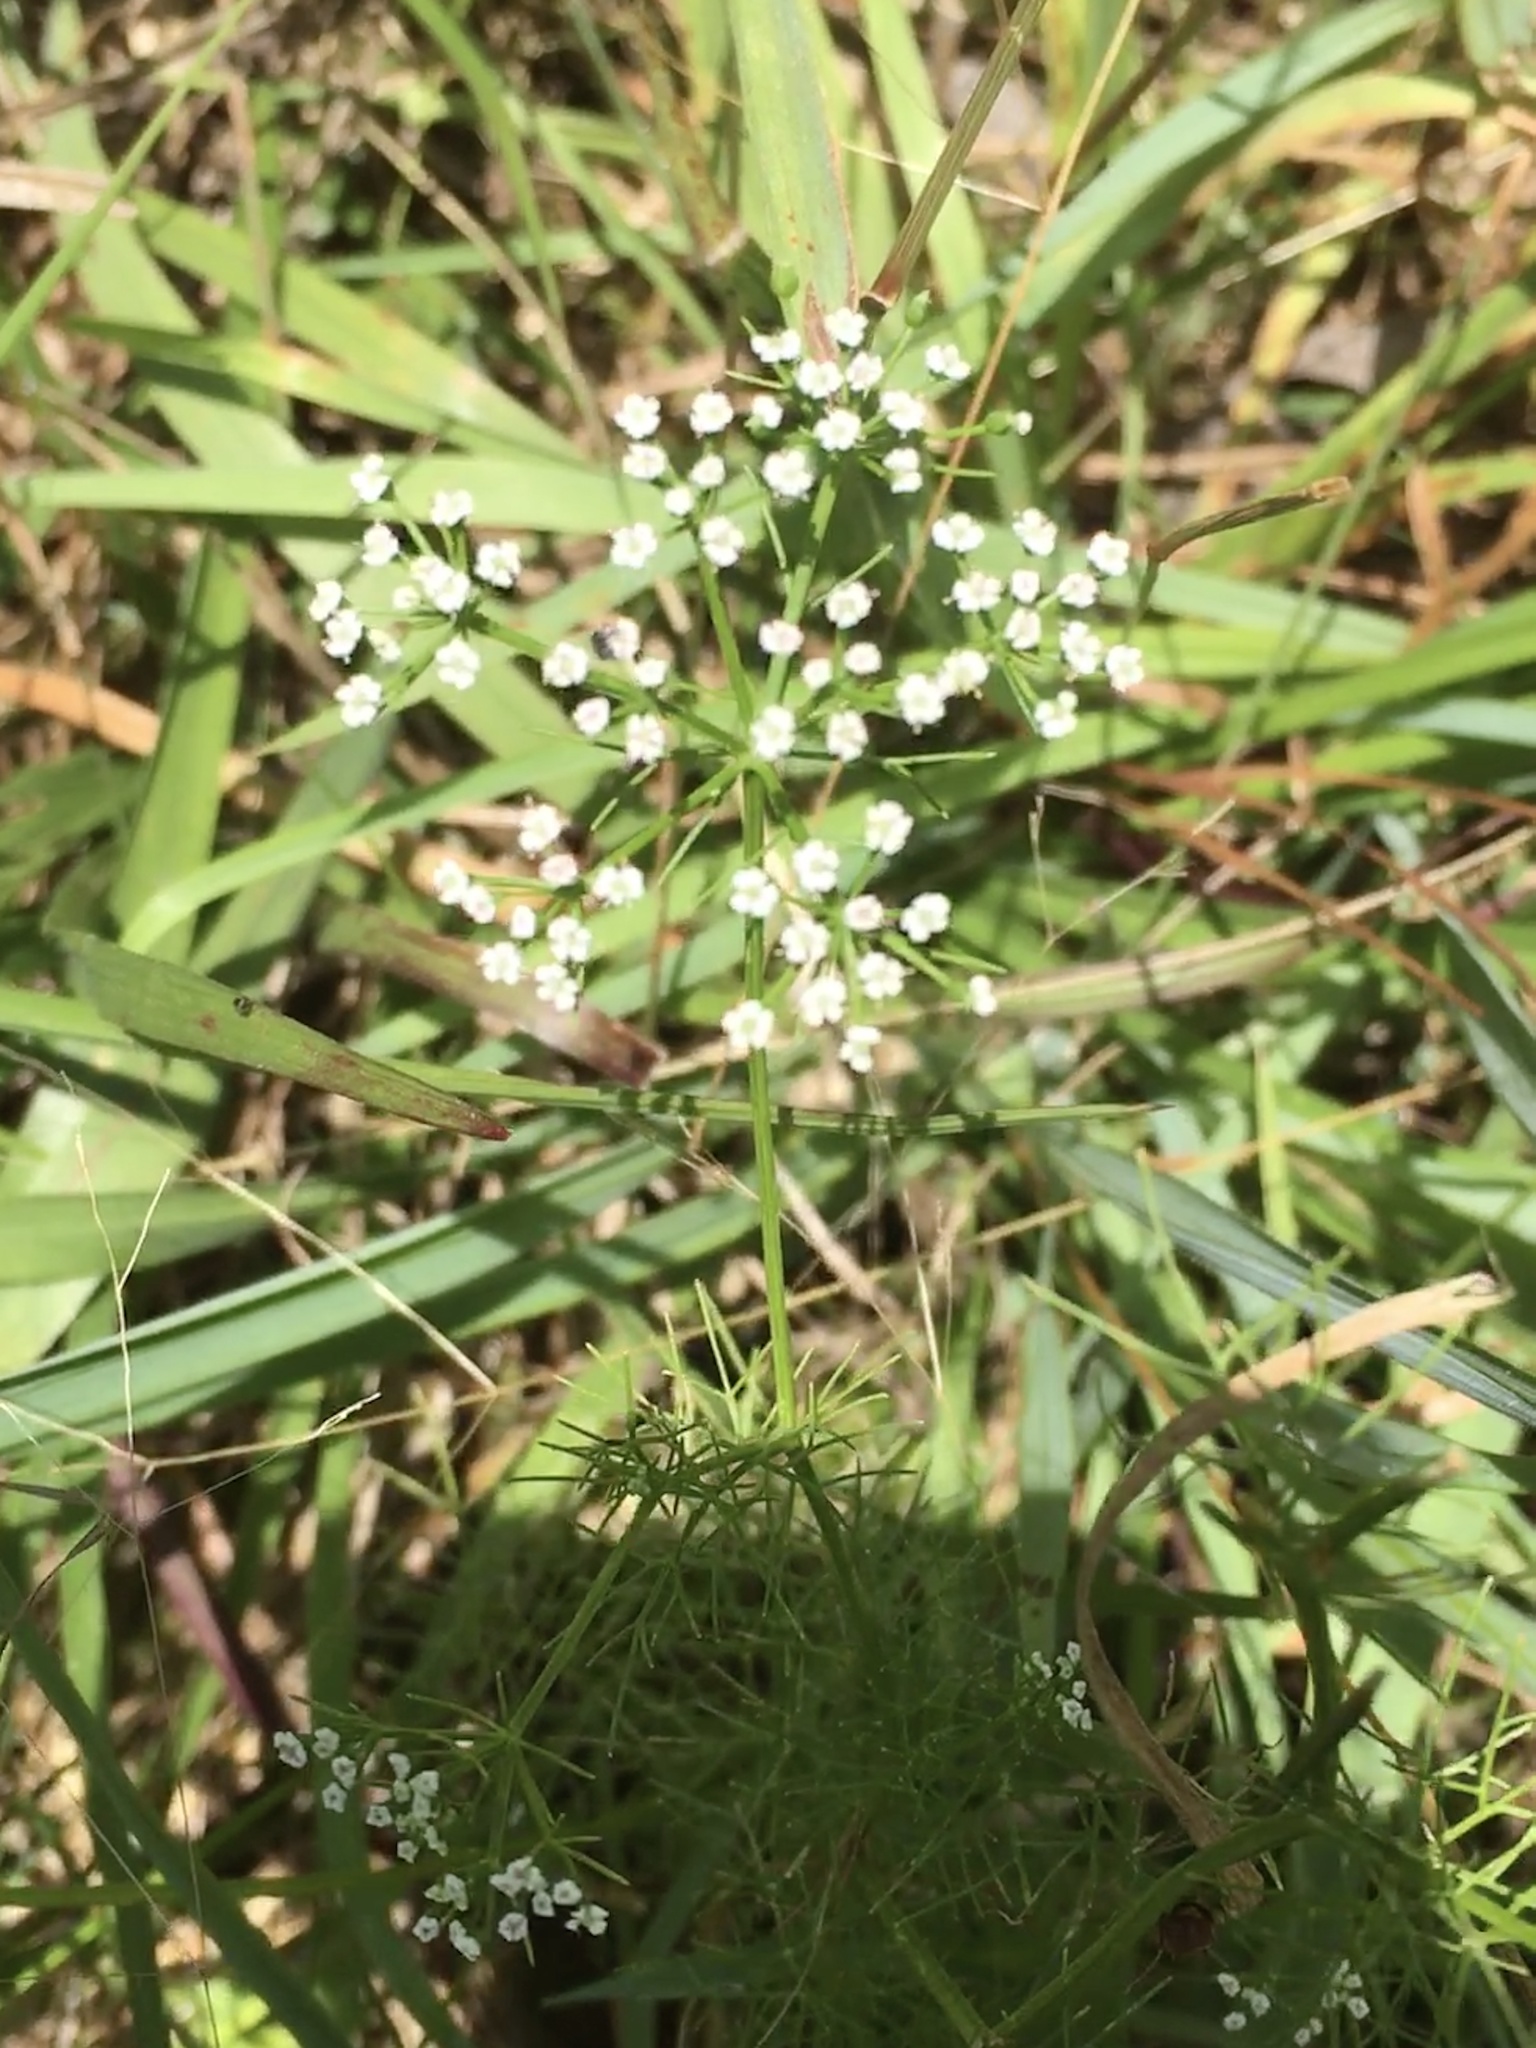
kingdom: Plantae
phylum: Tracheophyta
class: Magnoliopsida
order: Apiales
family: Apiaceae
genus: Ptilimnium
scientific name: Ptilimnium capillaceum
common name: Herbwilliam
